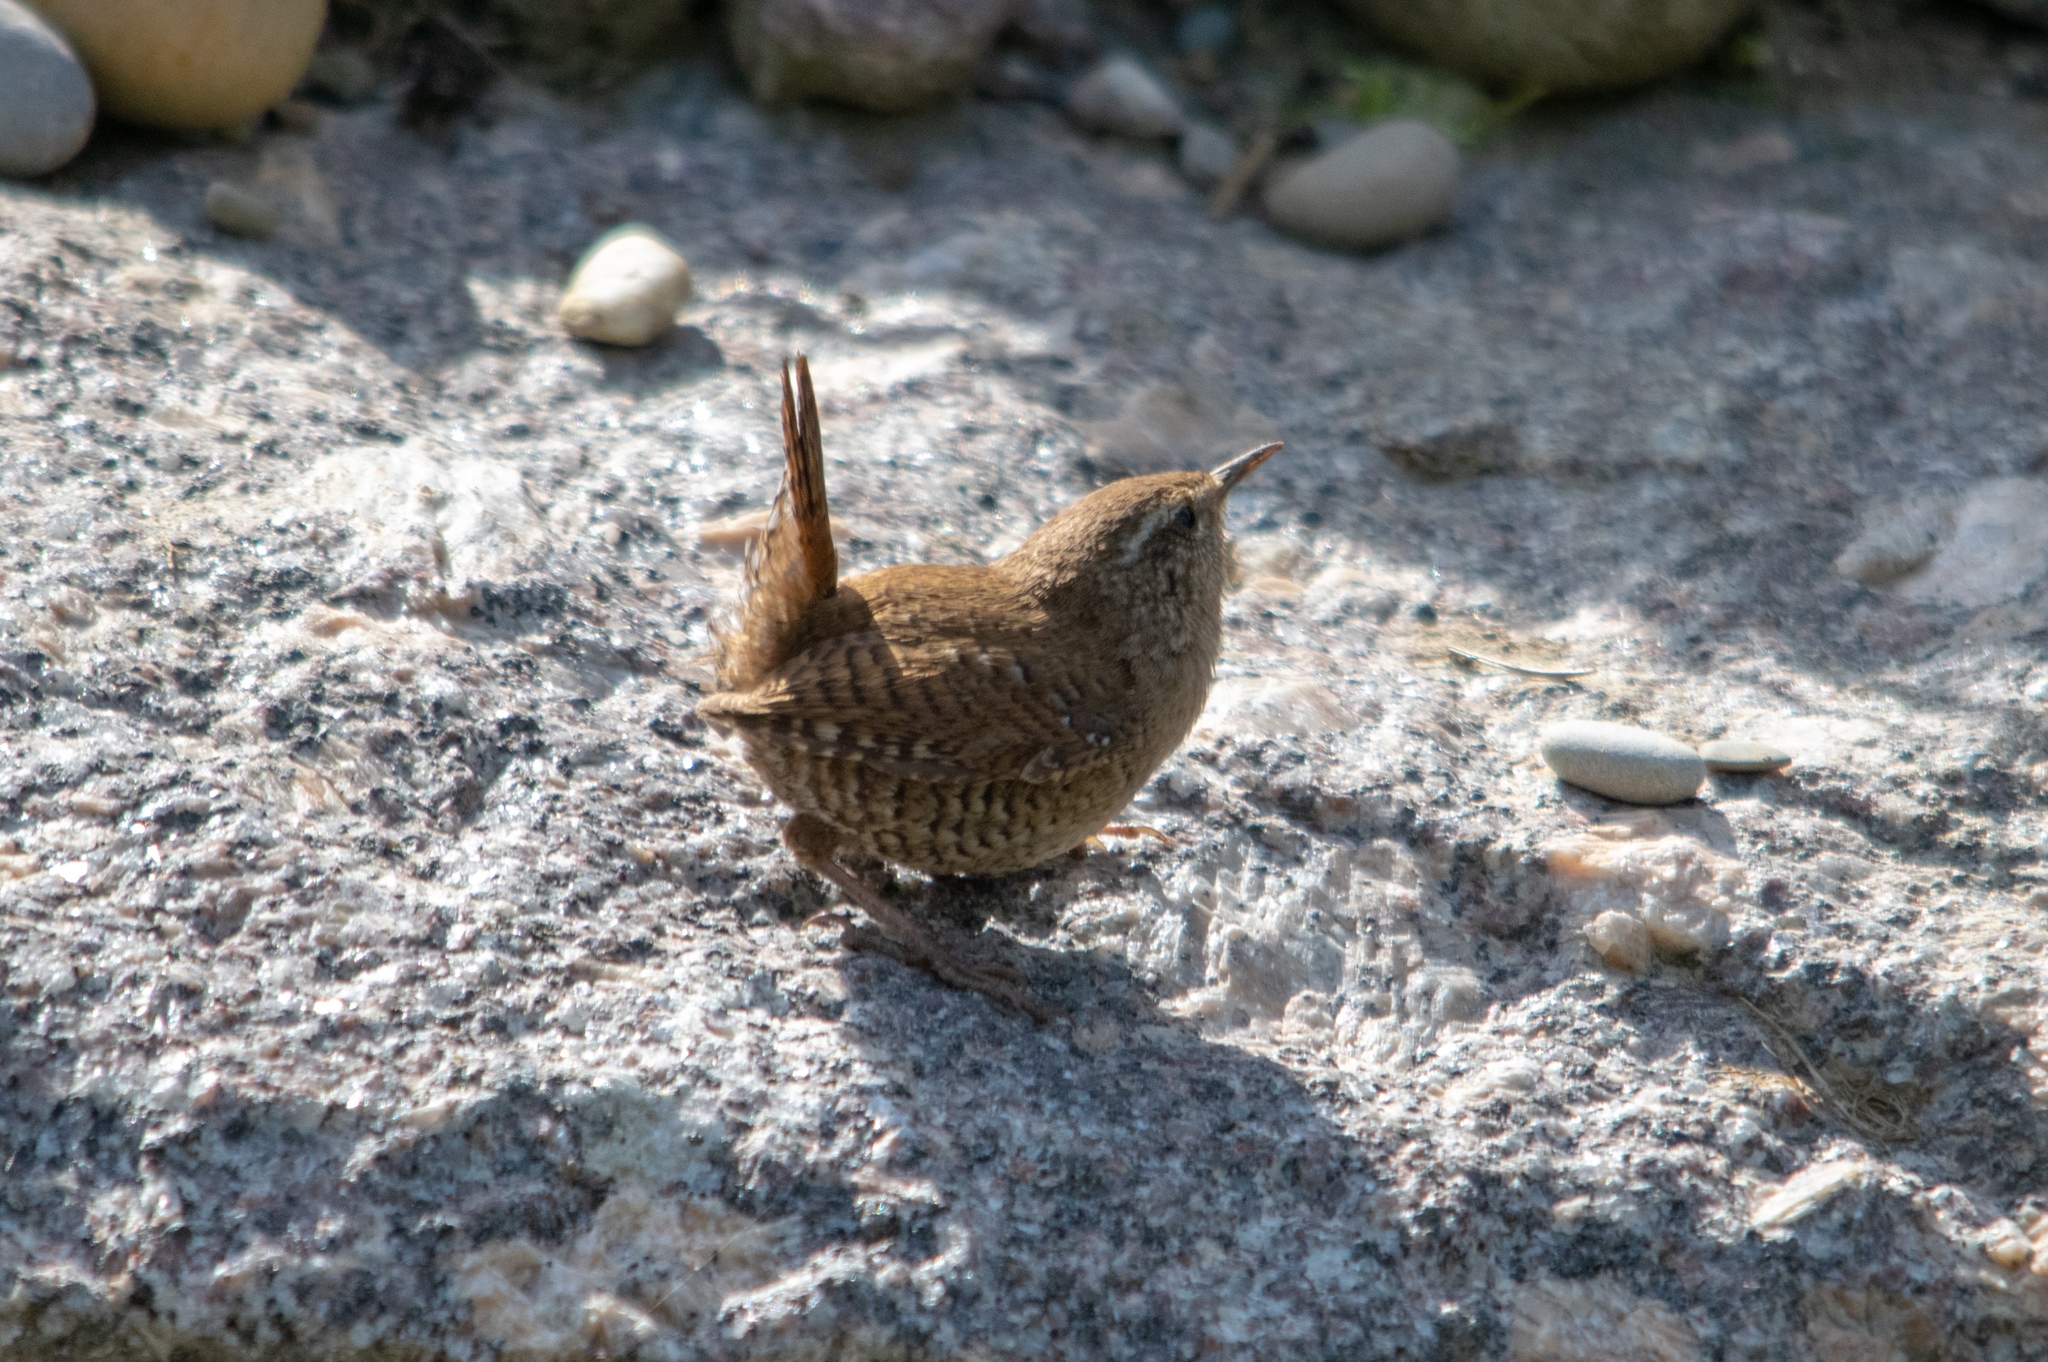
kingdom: Animalia
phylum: Chordata
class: Aves
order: Passeriformes
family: Troglodytidae
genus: Troglodytes
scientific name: Troglodytes troglodytes
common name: Eurasian wren
